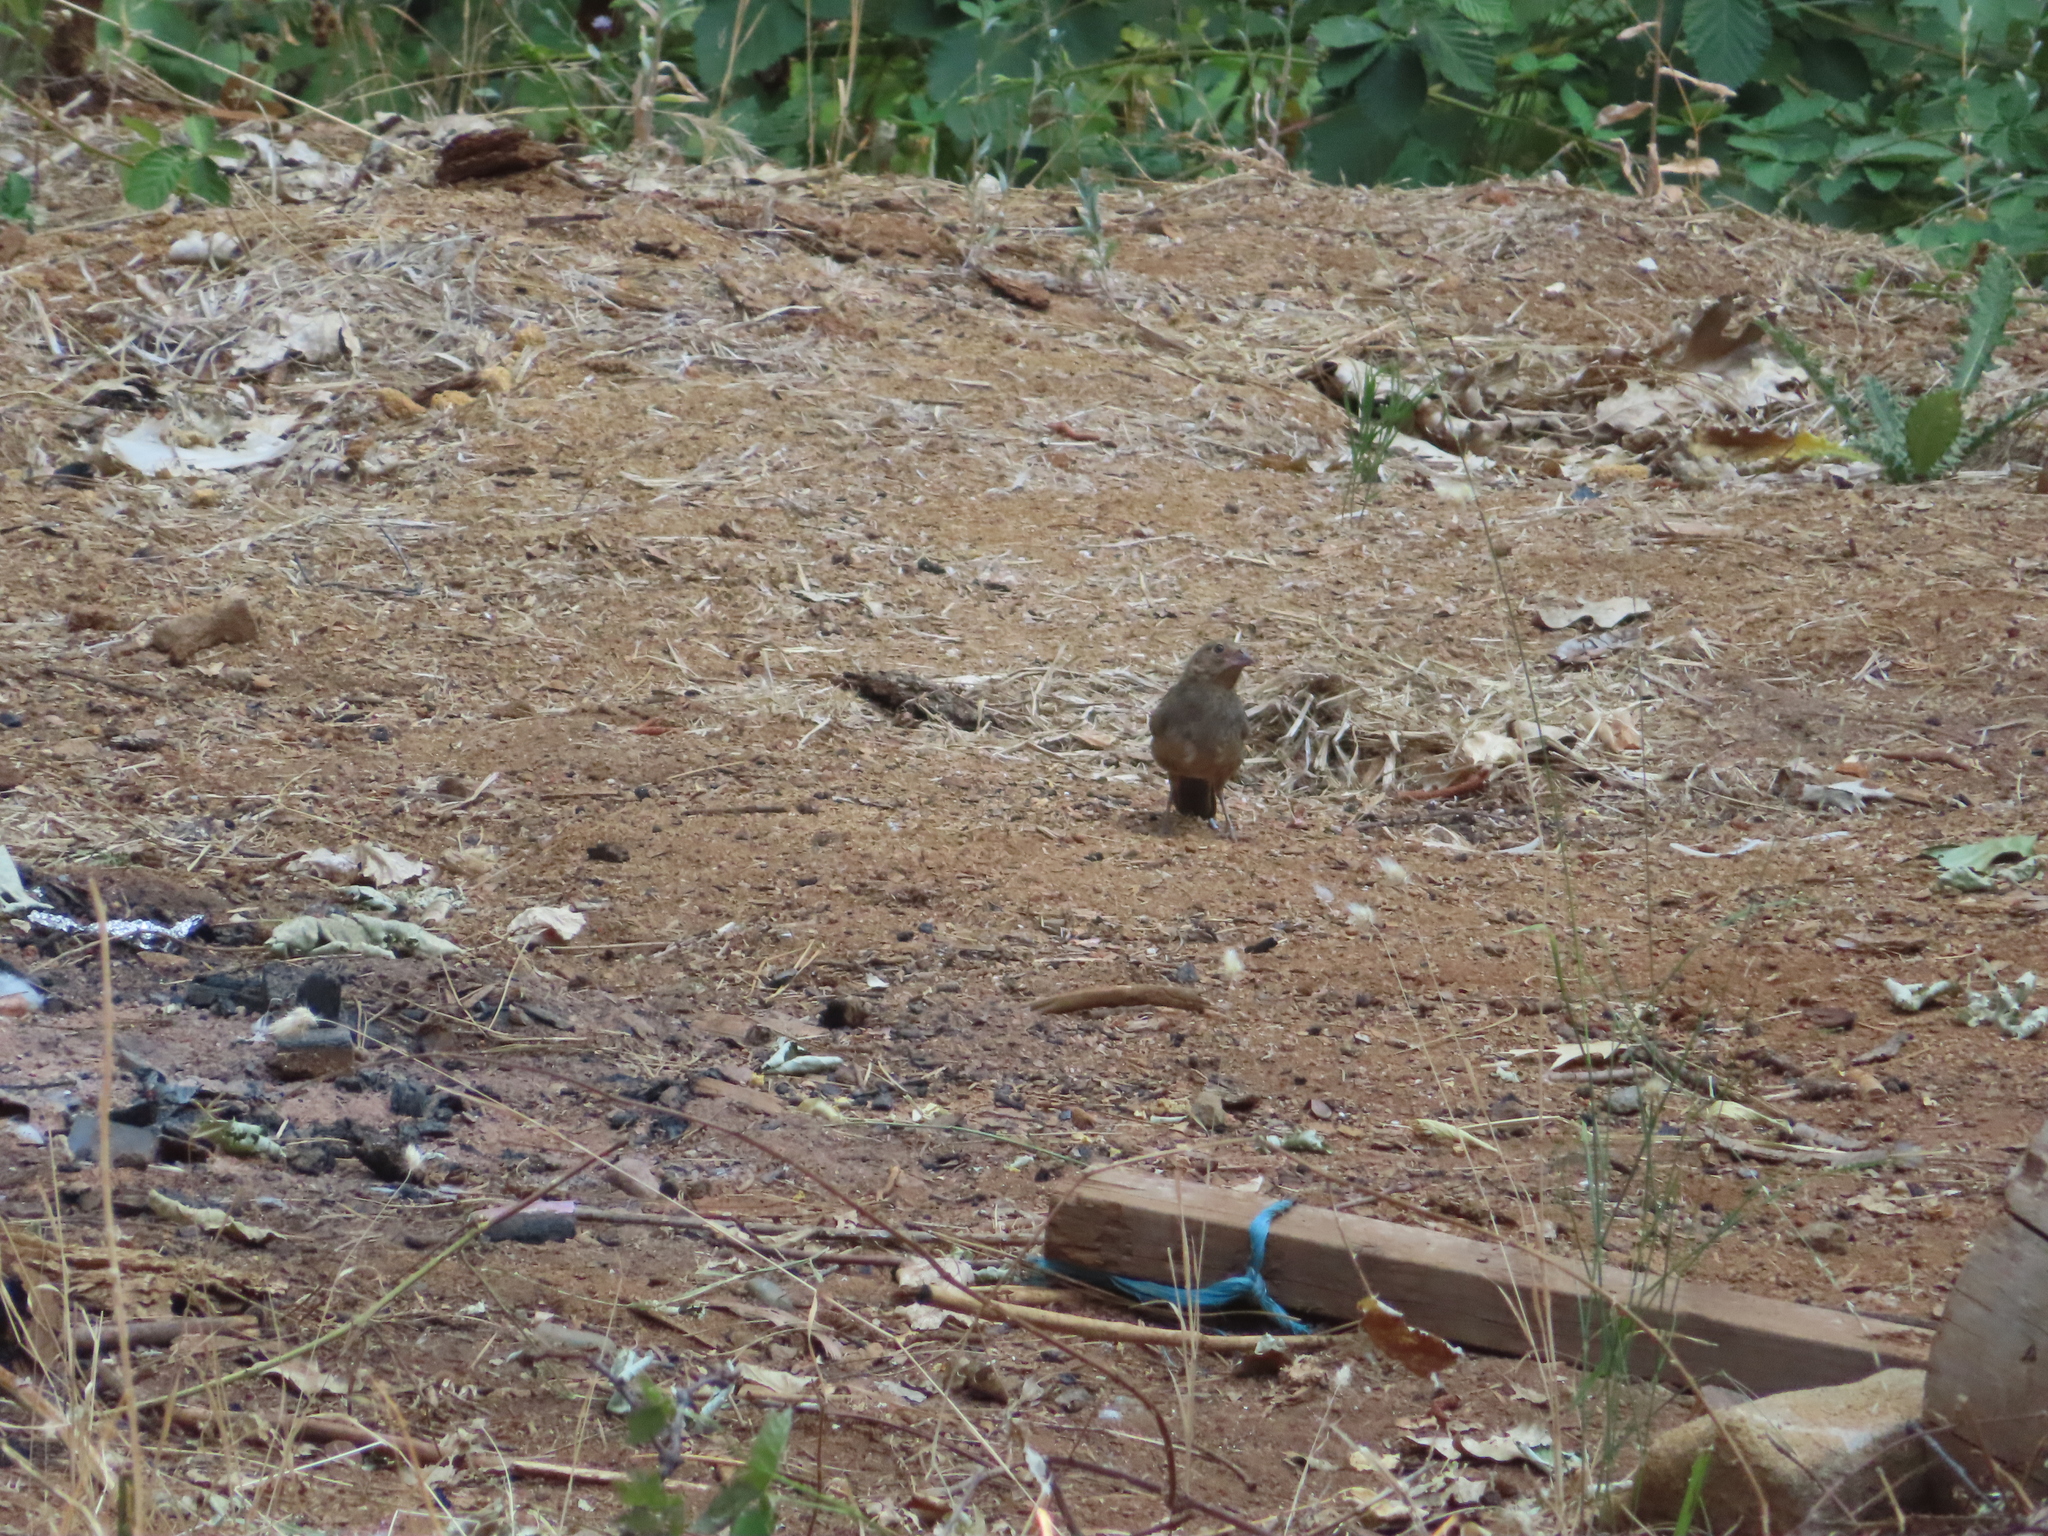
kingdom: Animalia
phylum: Chordata
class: Aves
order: Passeriformes
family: Passerellidae
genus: Melozone
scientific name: Melozone crissalis
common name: California towhee
